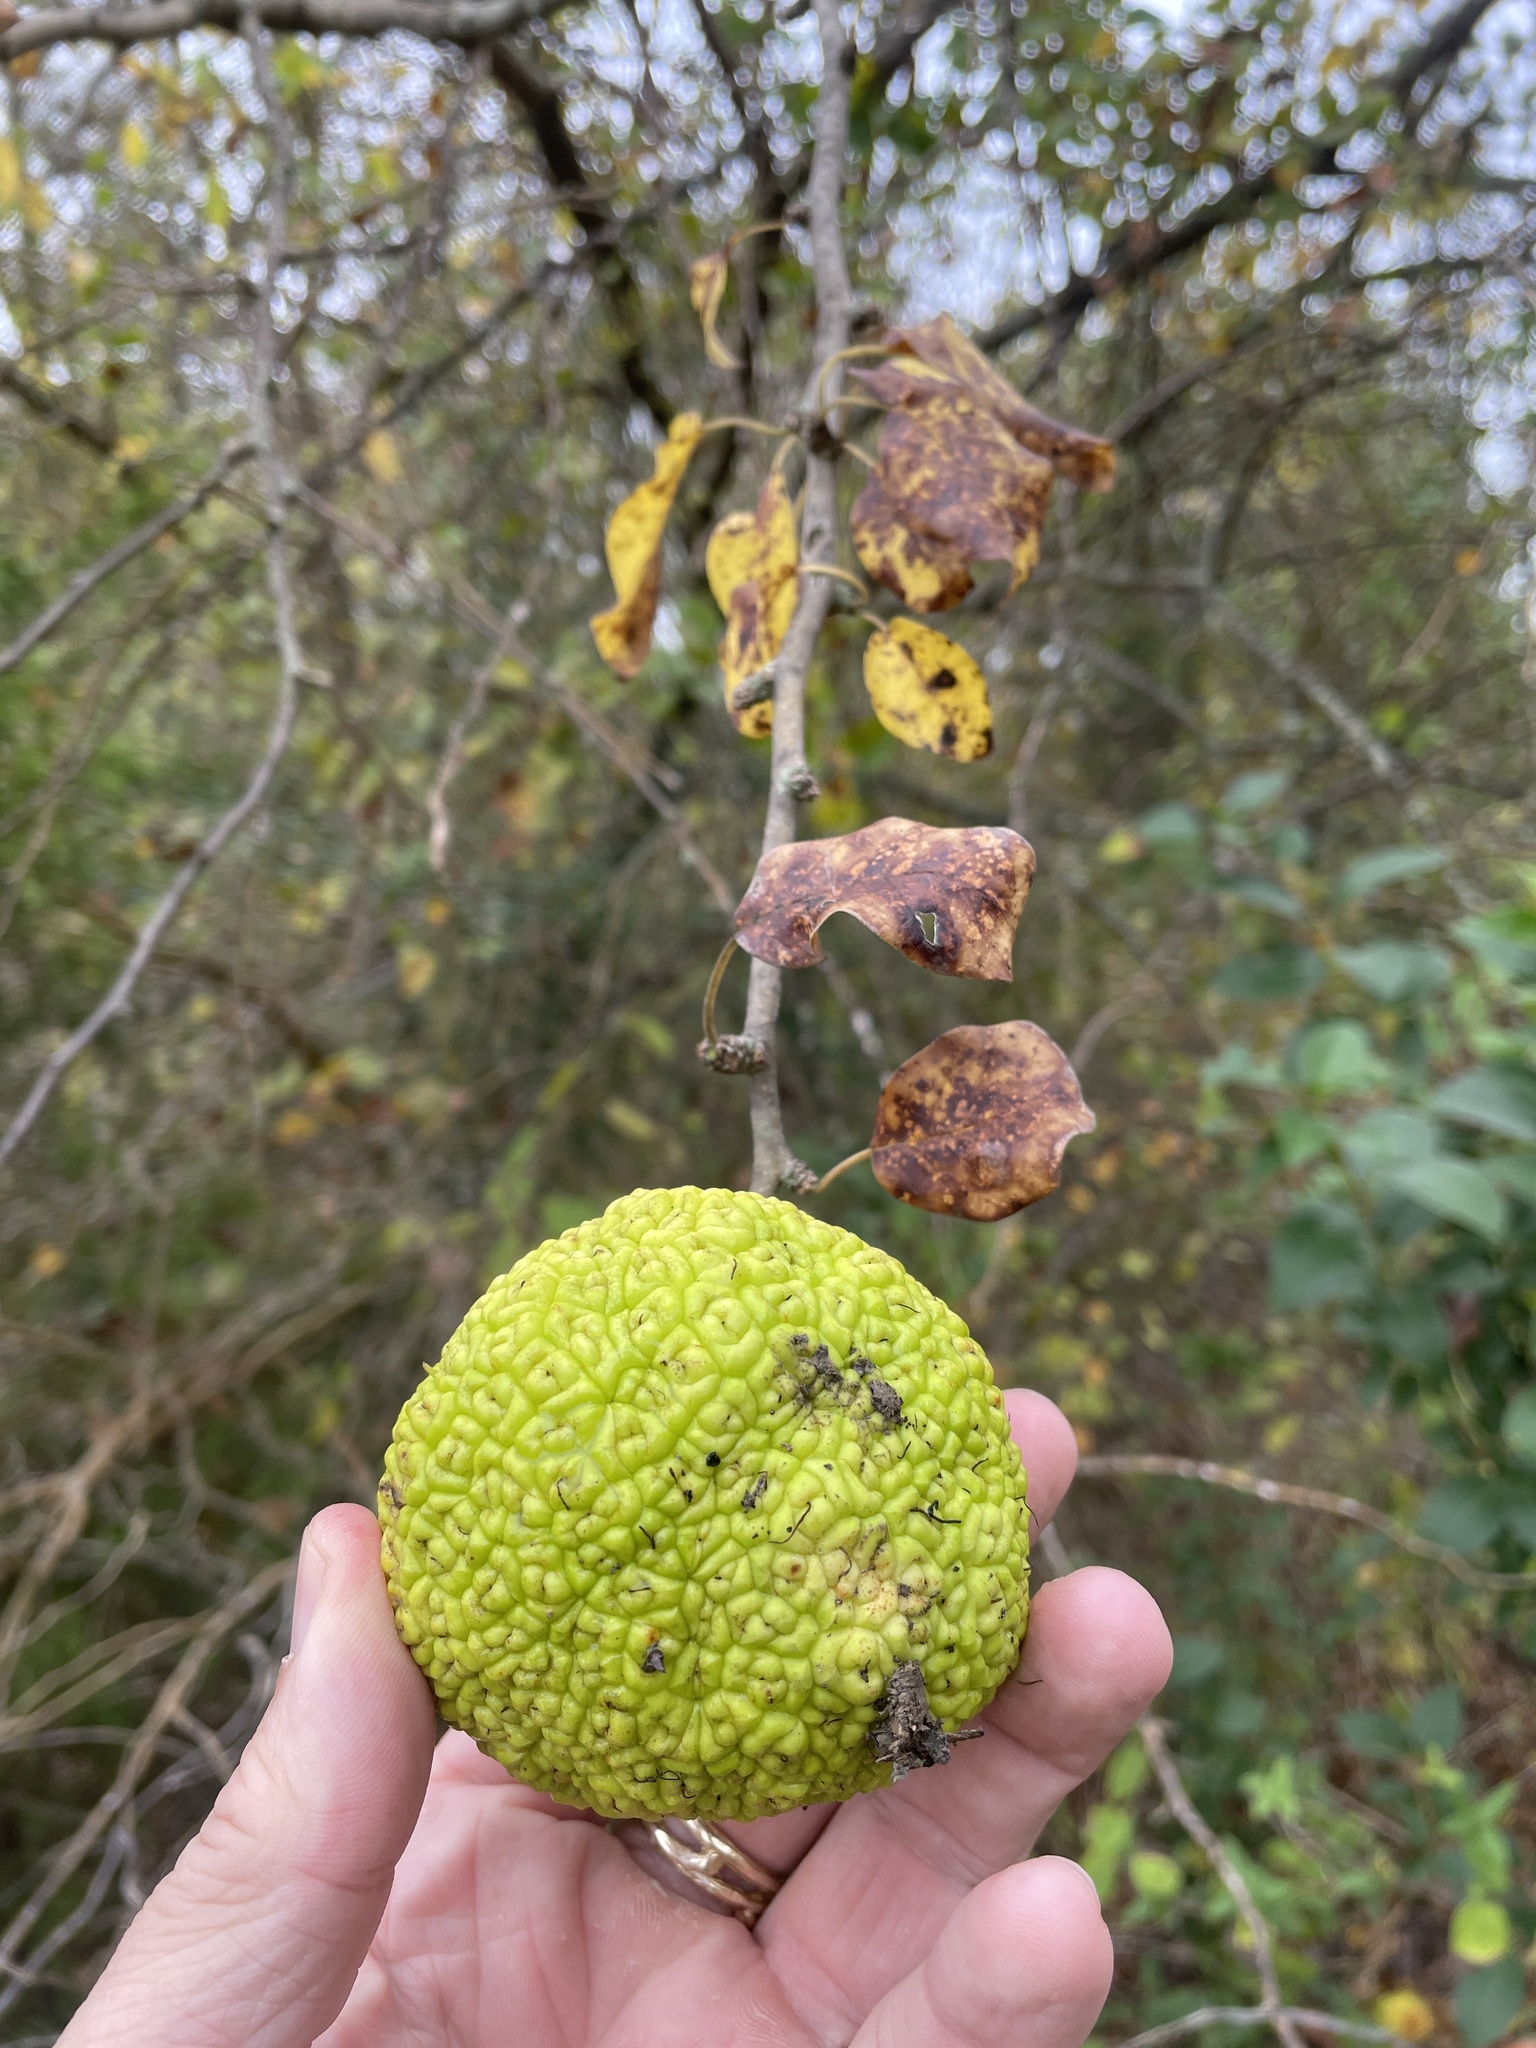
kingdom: Plantae
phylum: Tracheophyta
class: Magnoliopsida
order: Rosales
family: Moraceae
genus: Maclura
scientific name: Maclura pomifera
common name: Osage-orange
